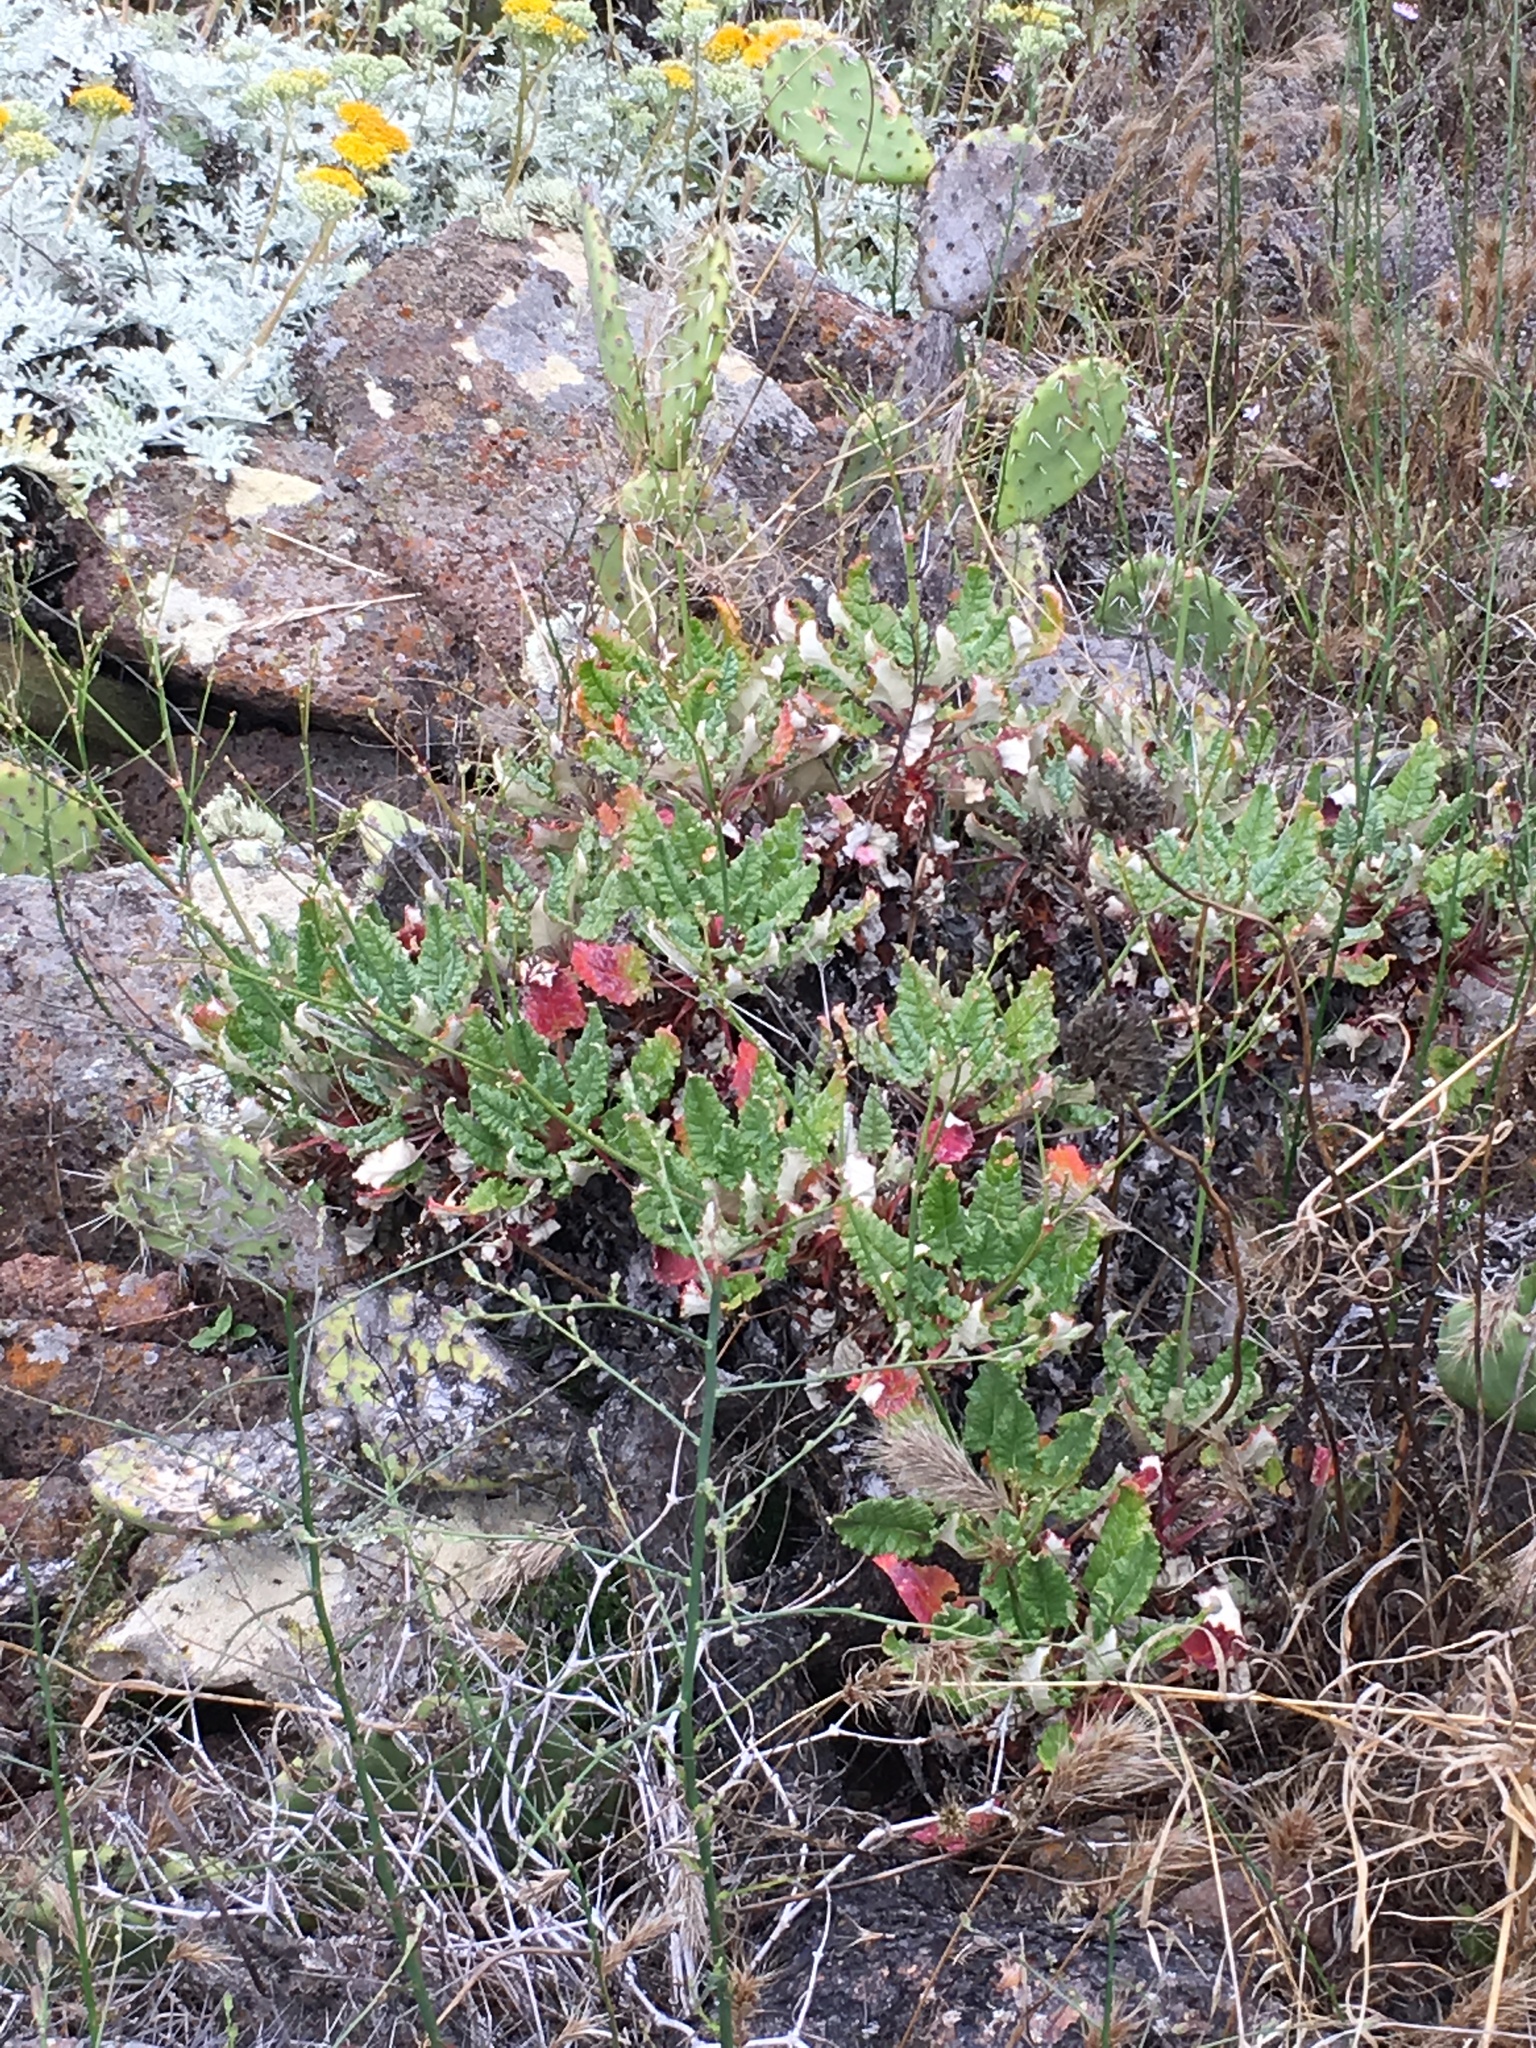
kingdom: Plantae
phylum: Tracheophyta
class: Magnoliopsida
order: Caryophyllales
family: Polygonaceae
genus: Eriogonum
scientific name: Eriogonum grande
